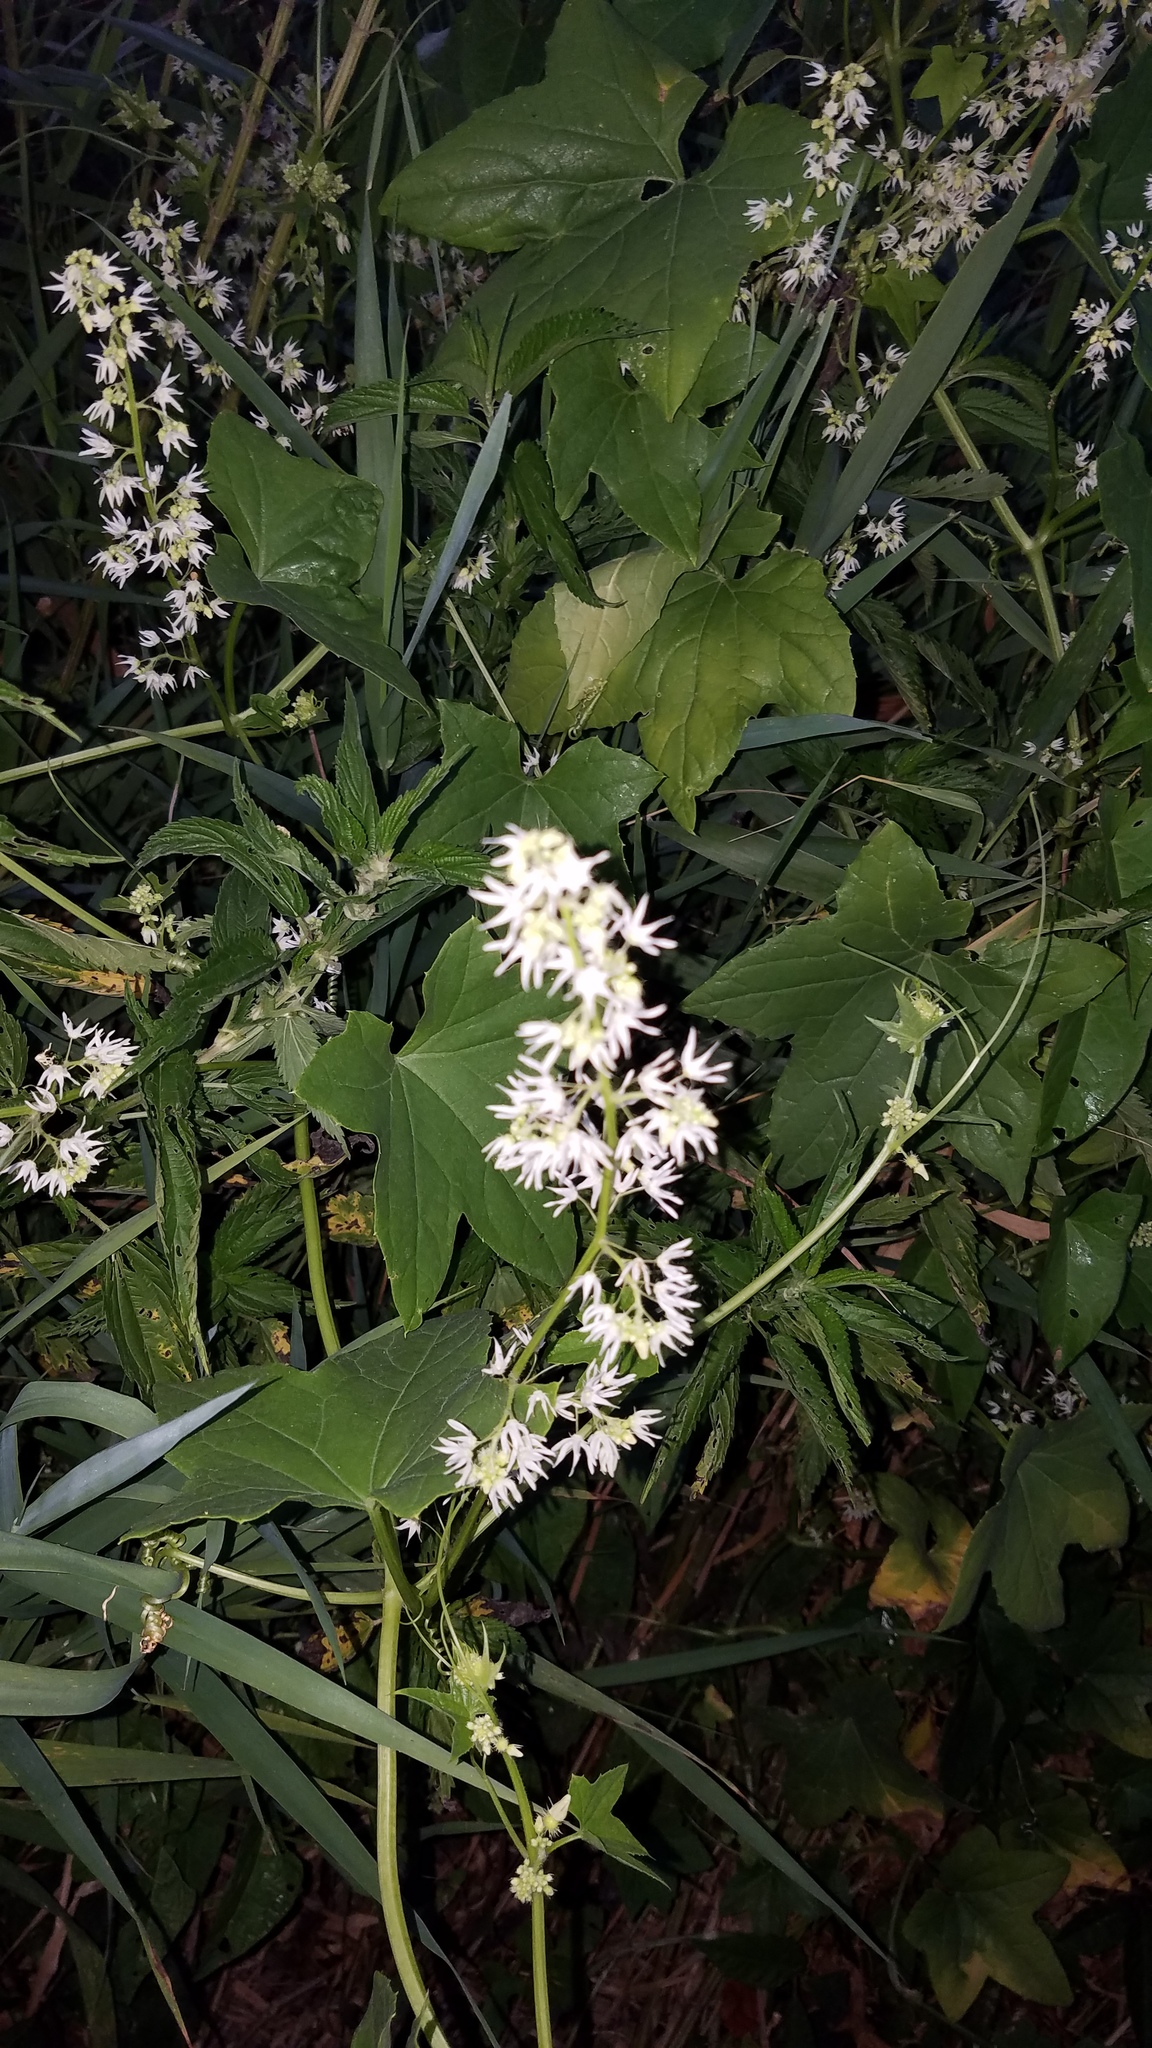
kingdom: Plantae
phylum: Tracheophyta
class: Magnoliopsida
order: Cucurbitales
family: Cucurbitaceae
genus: Echinocystis
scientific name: Echinocystis lobata
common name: Wild cucumber
